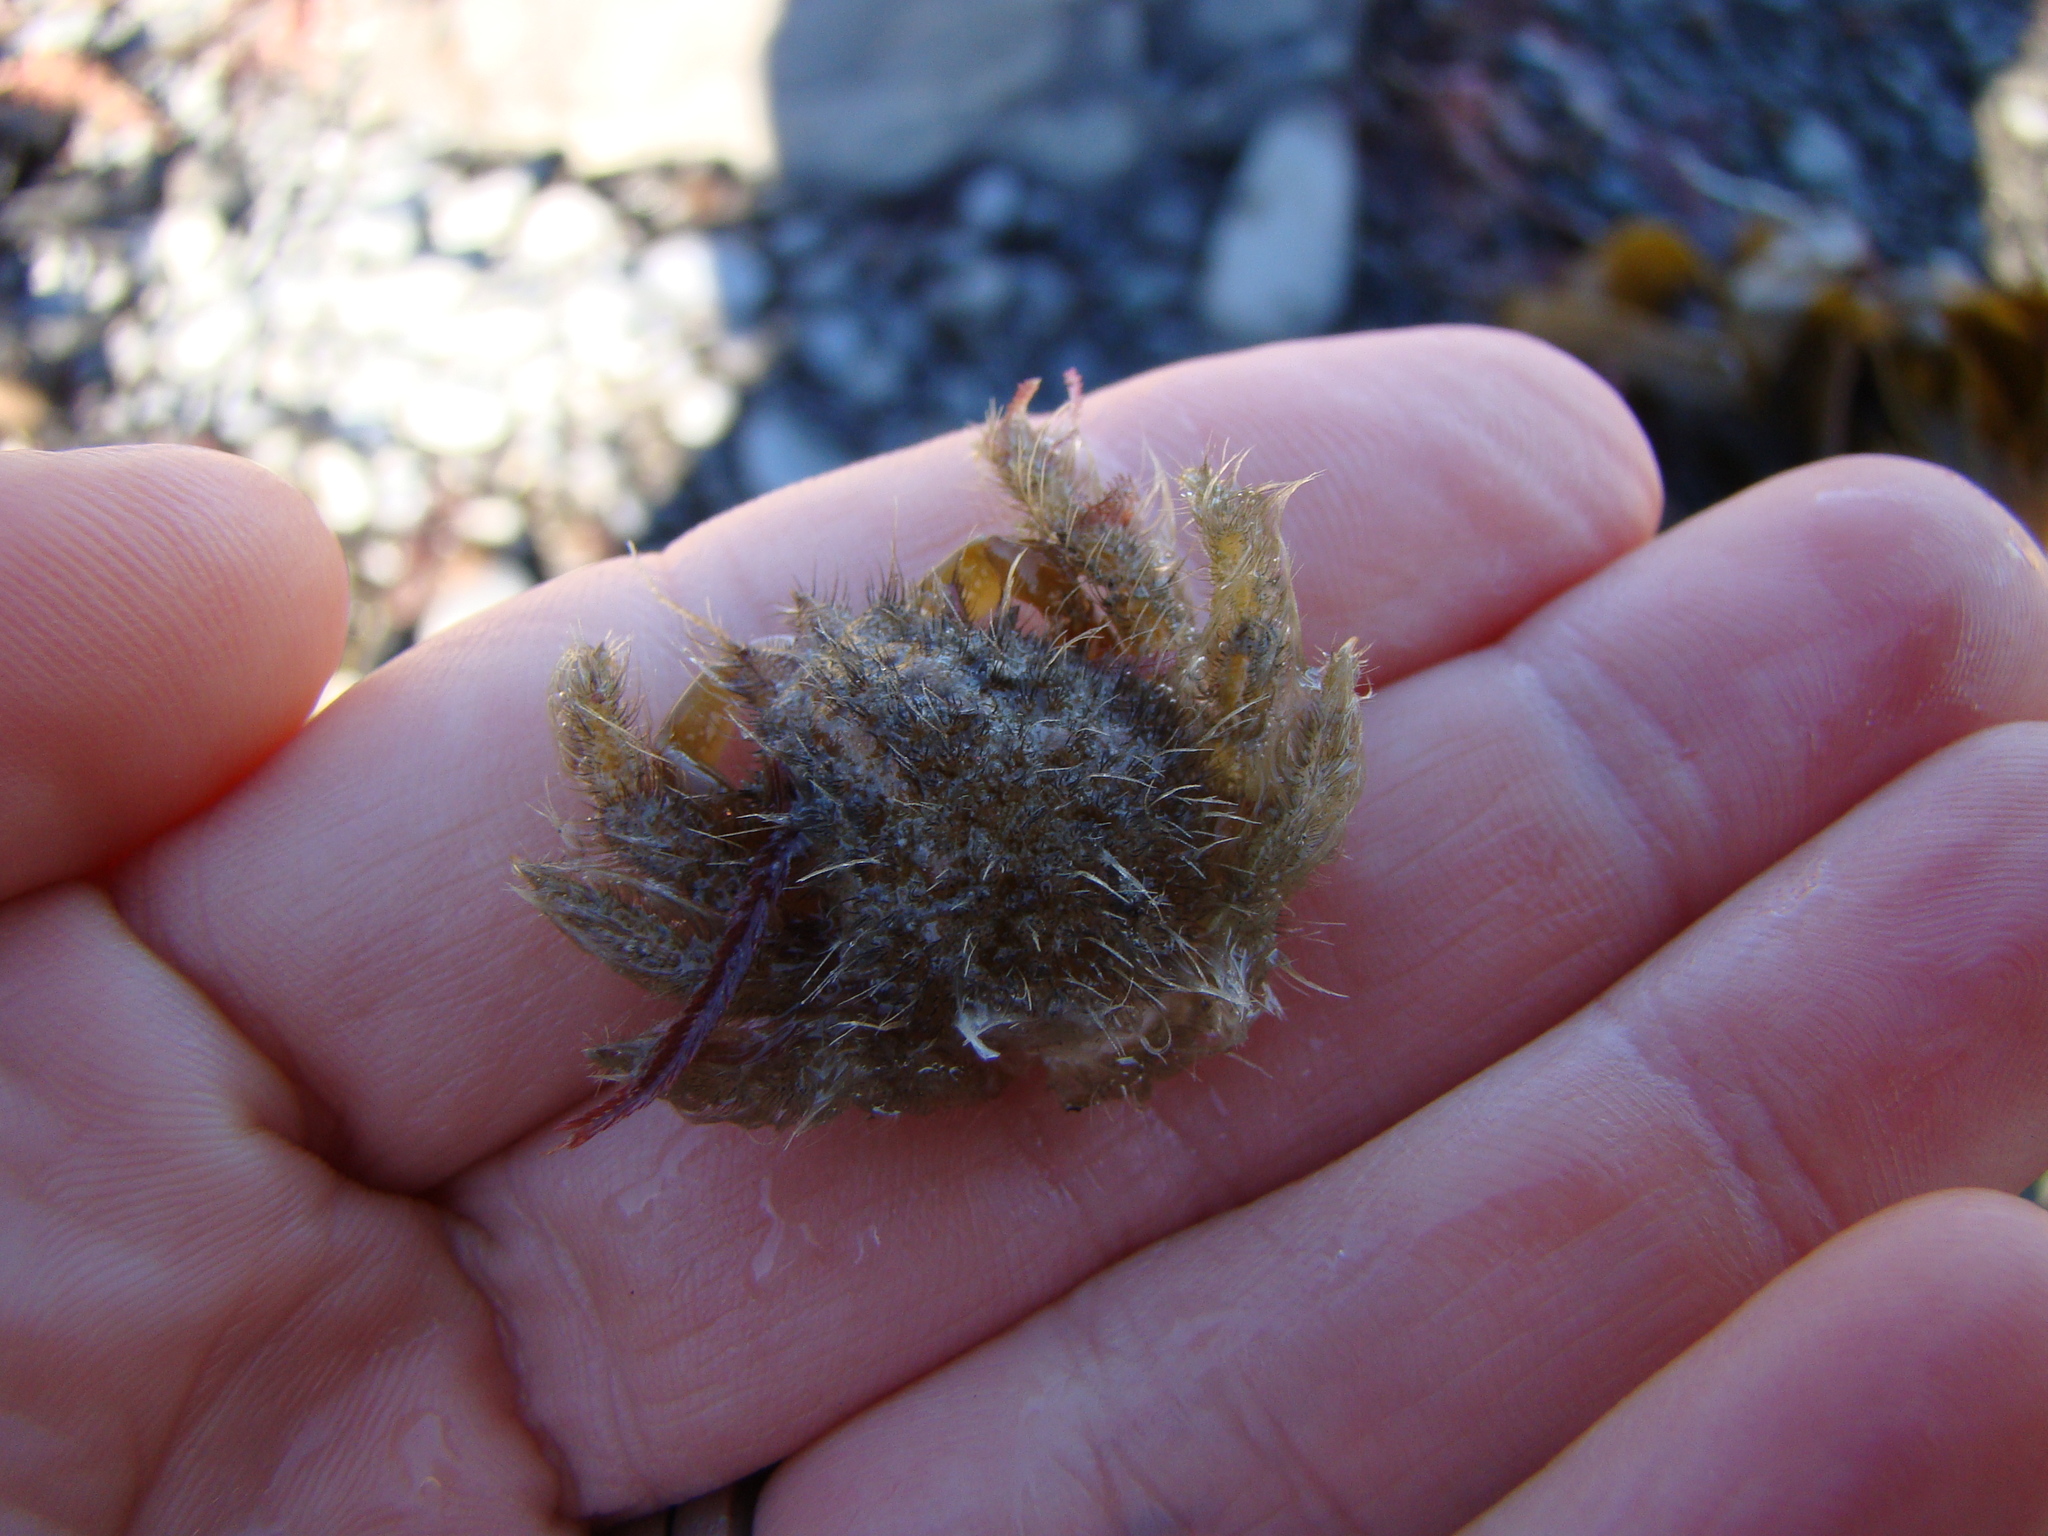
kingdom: Animalia
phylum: Arthropoda
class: Malacostraca
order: Decapoda
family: Majidae
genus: Notomithrax
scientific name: Notomithrax minor
